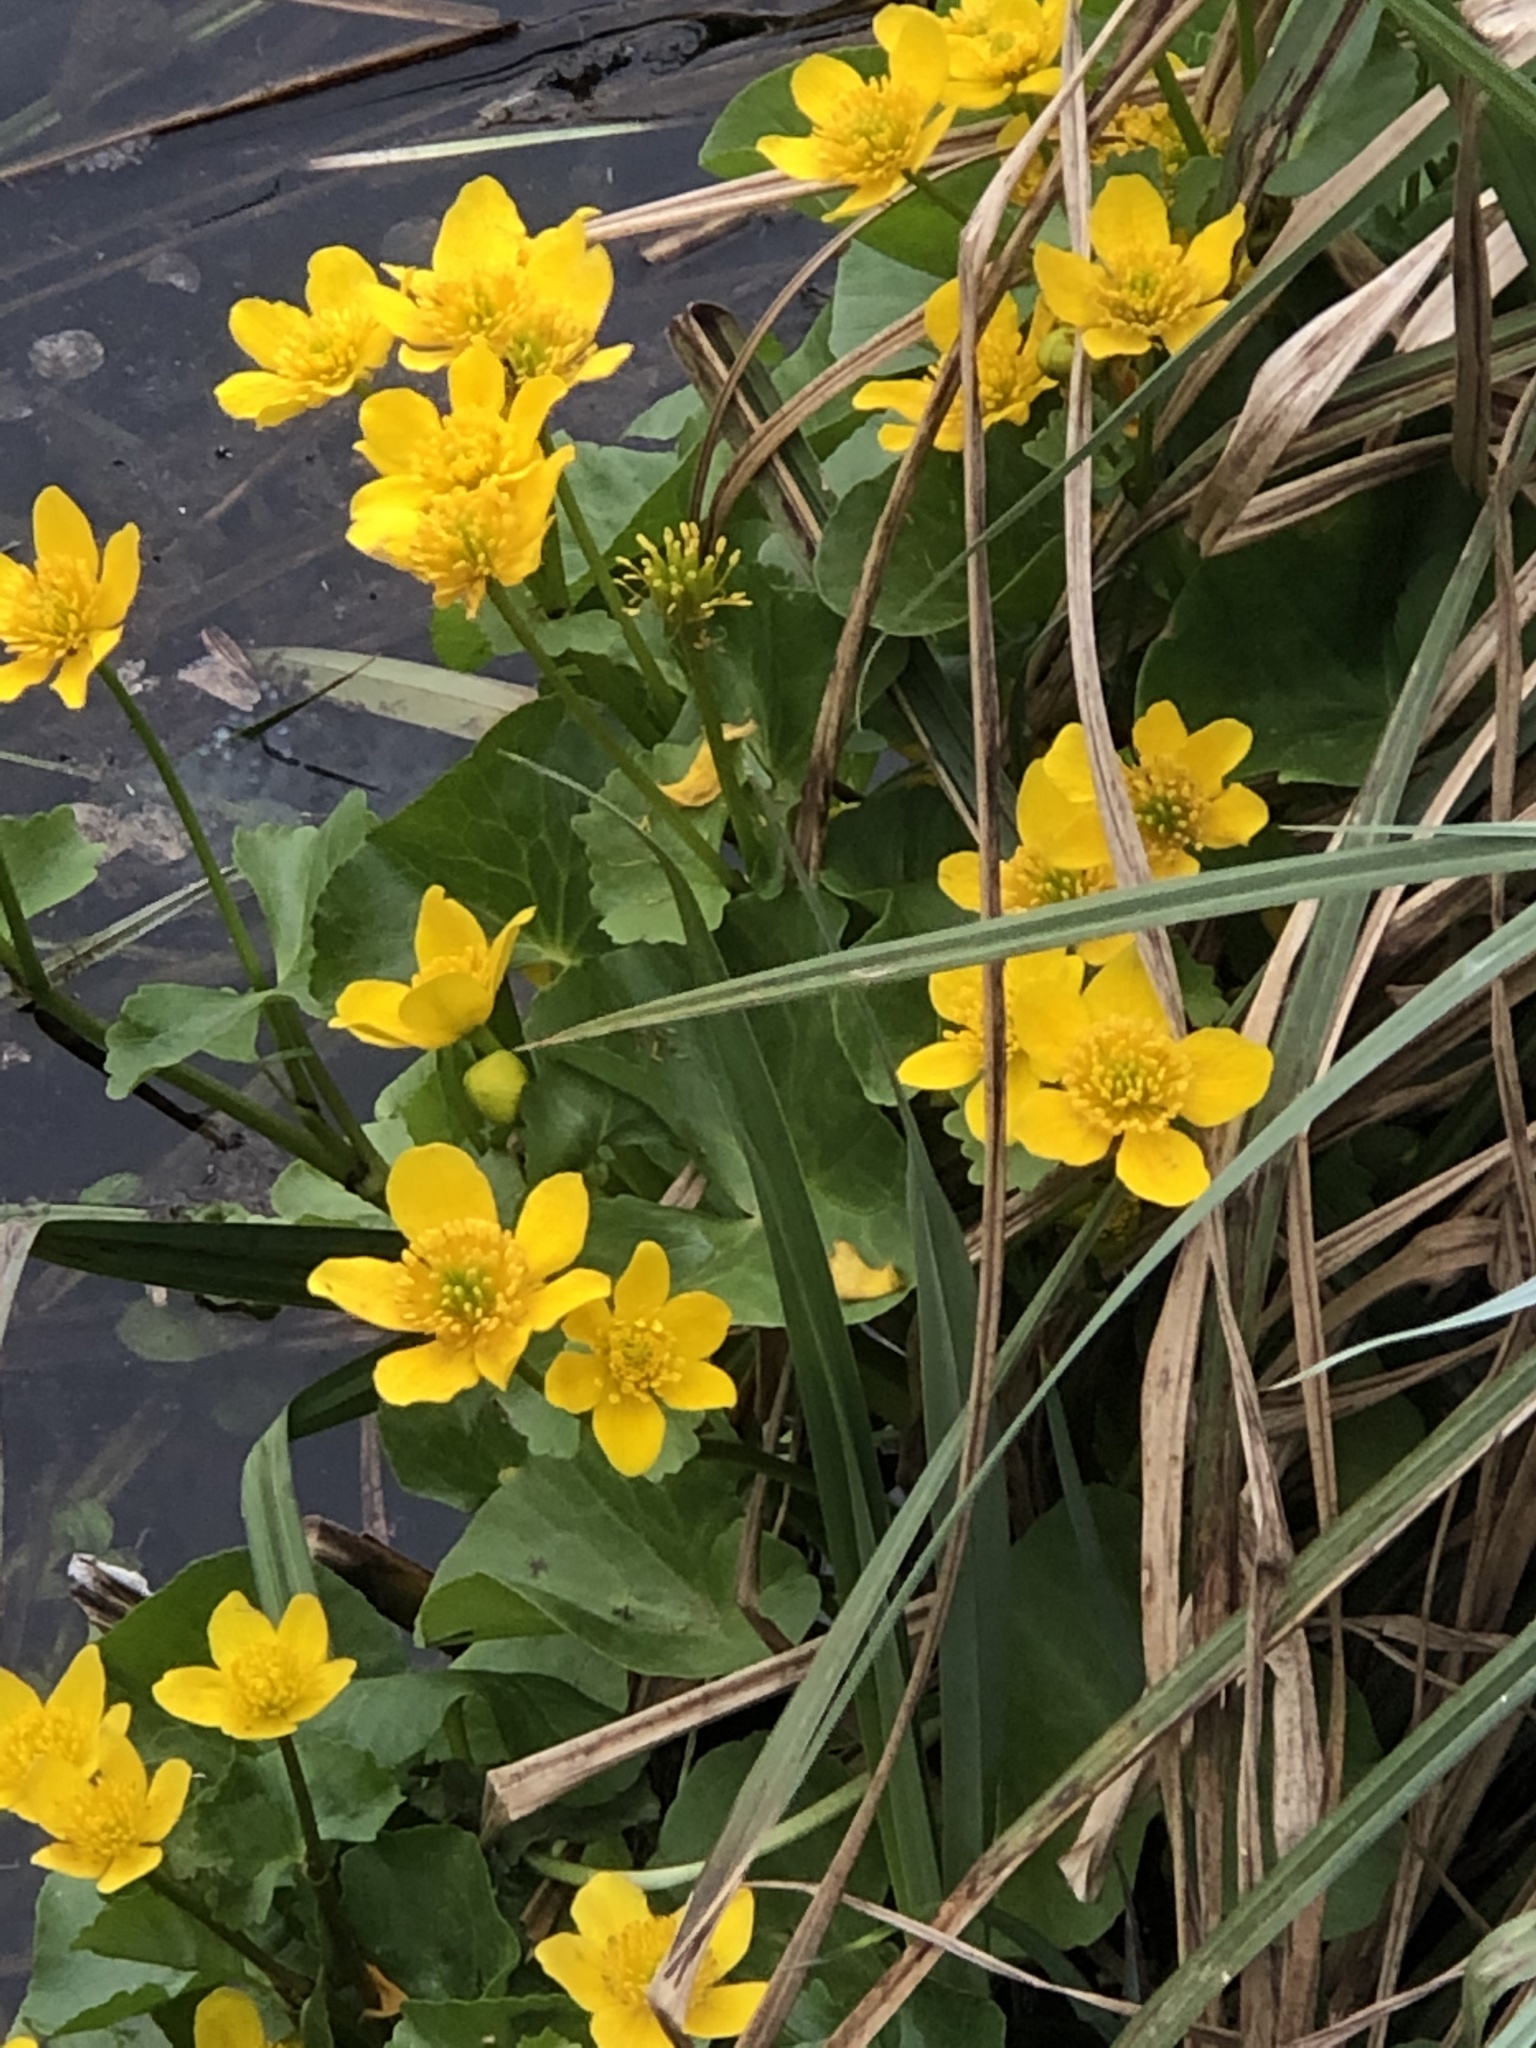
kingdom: Plantae
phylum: Tracheophyta
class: Magnoliopsida
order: Ranunculales
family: Ranunculaceae
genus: Caltha
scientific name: Caltha palustris
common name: Marsh marigold
